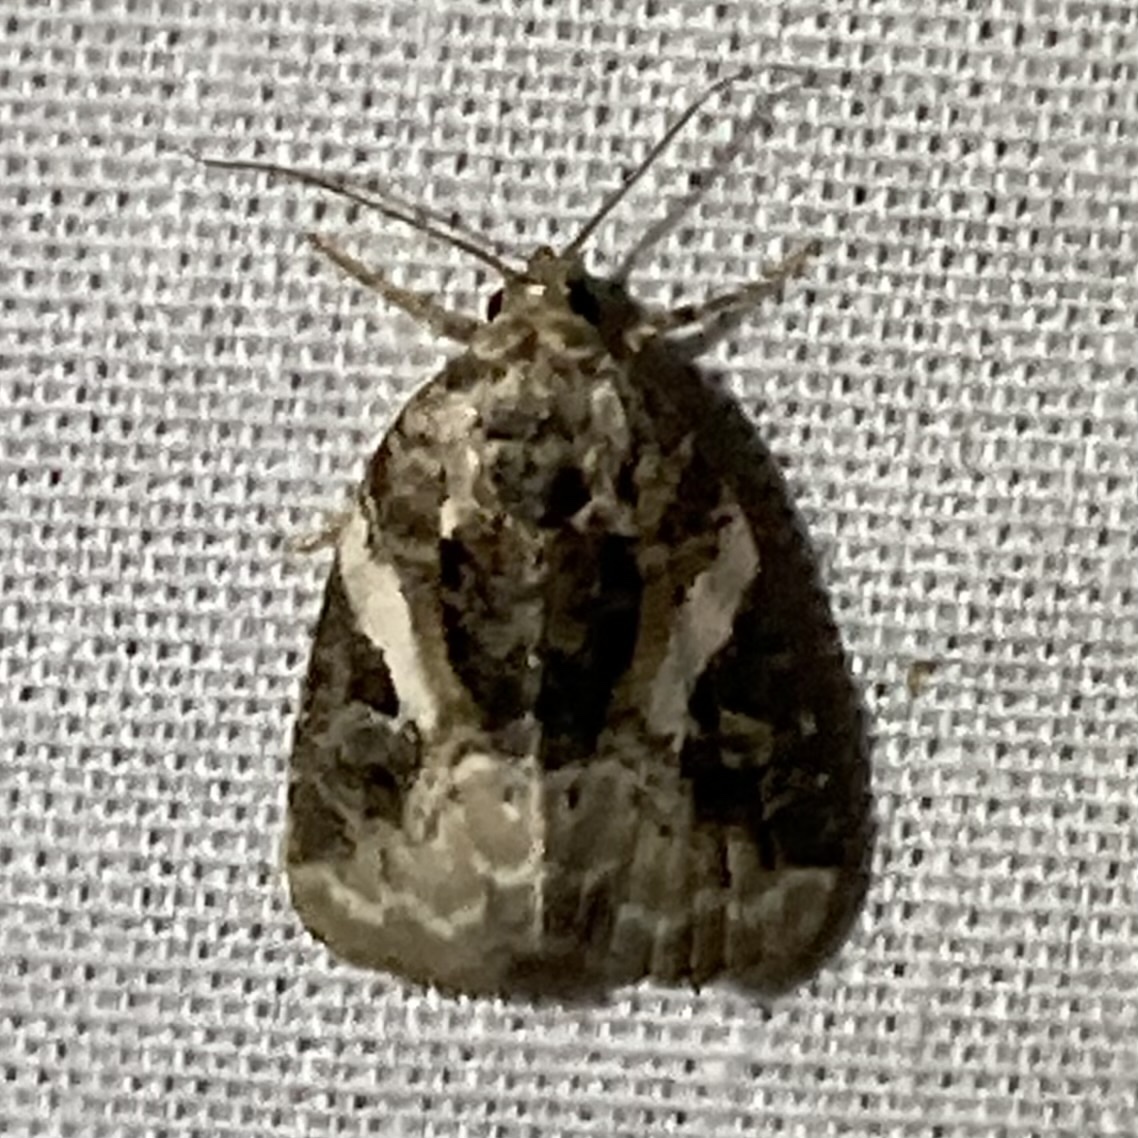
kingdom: Animalia
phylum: Arthropoda
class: Insecta
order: Lepidoptera
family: Noctuidae
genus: Pseudeustrotia
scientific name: Pseudeustrotia carneola
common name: Pink-barred lithacodia moth
